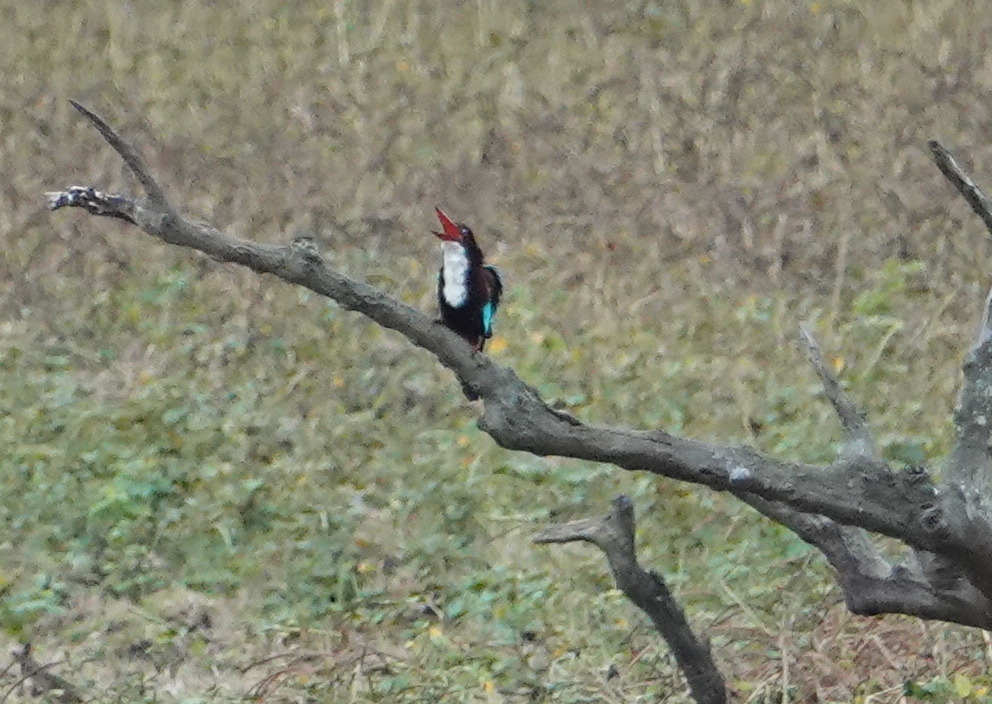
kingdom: Animalia
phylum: Chordata
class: Aves
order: Coraciiformes
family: Alcedinidae
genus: Halcyon
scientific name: Halcyon smyrnensis
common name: White-throated kingfisher
